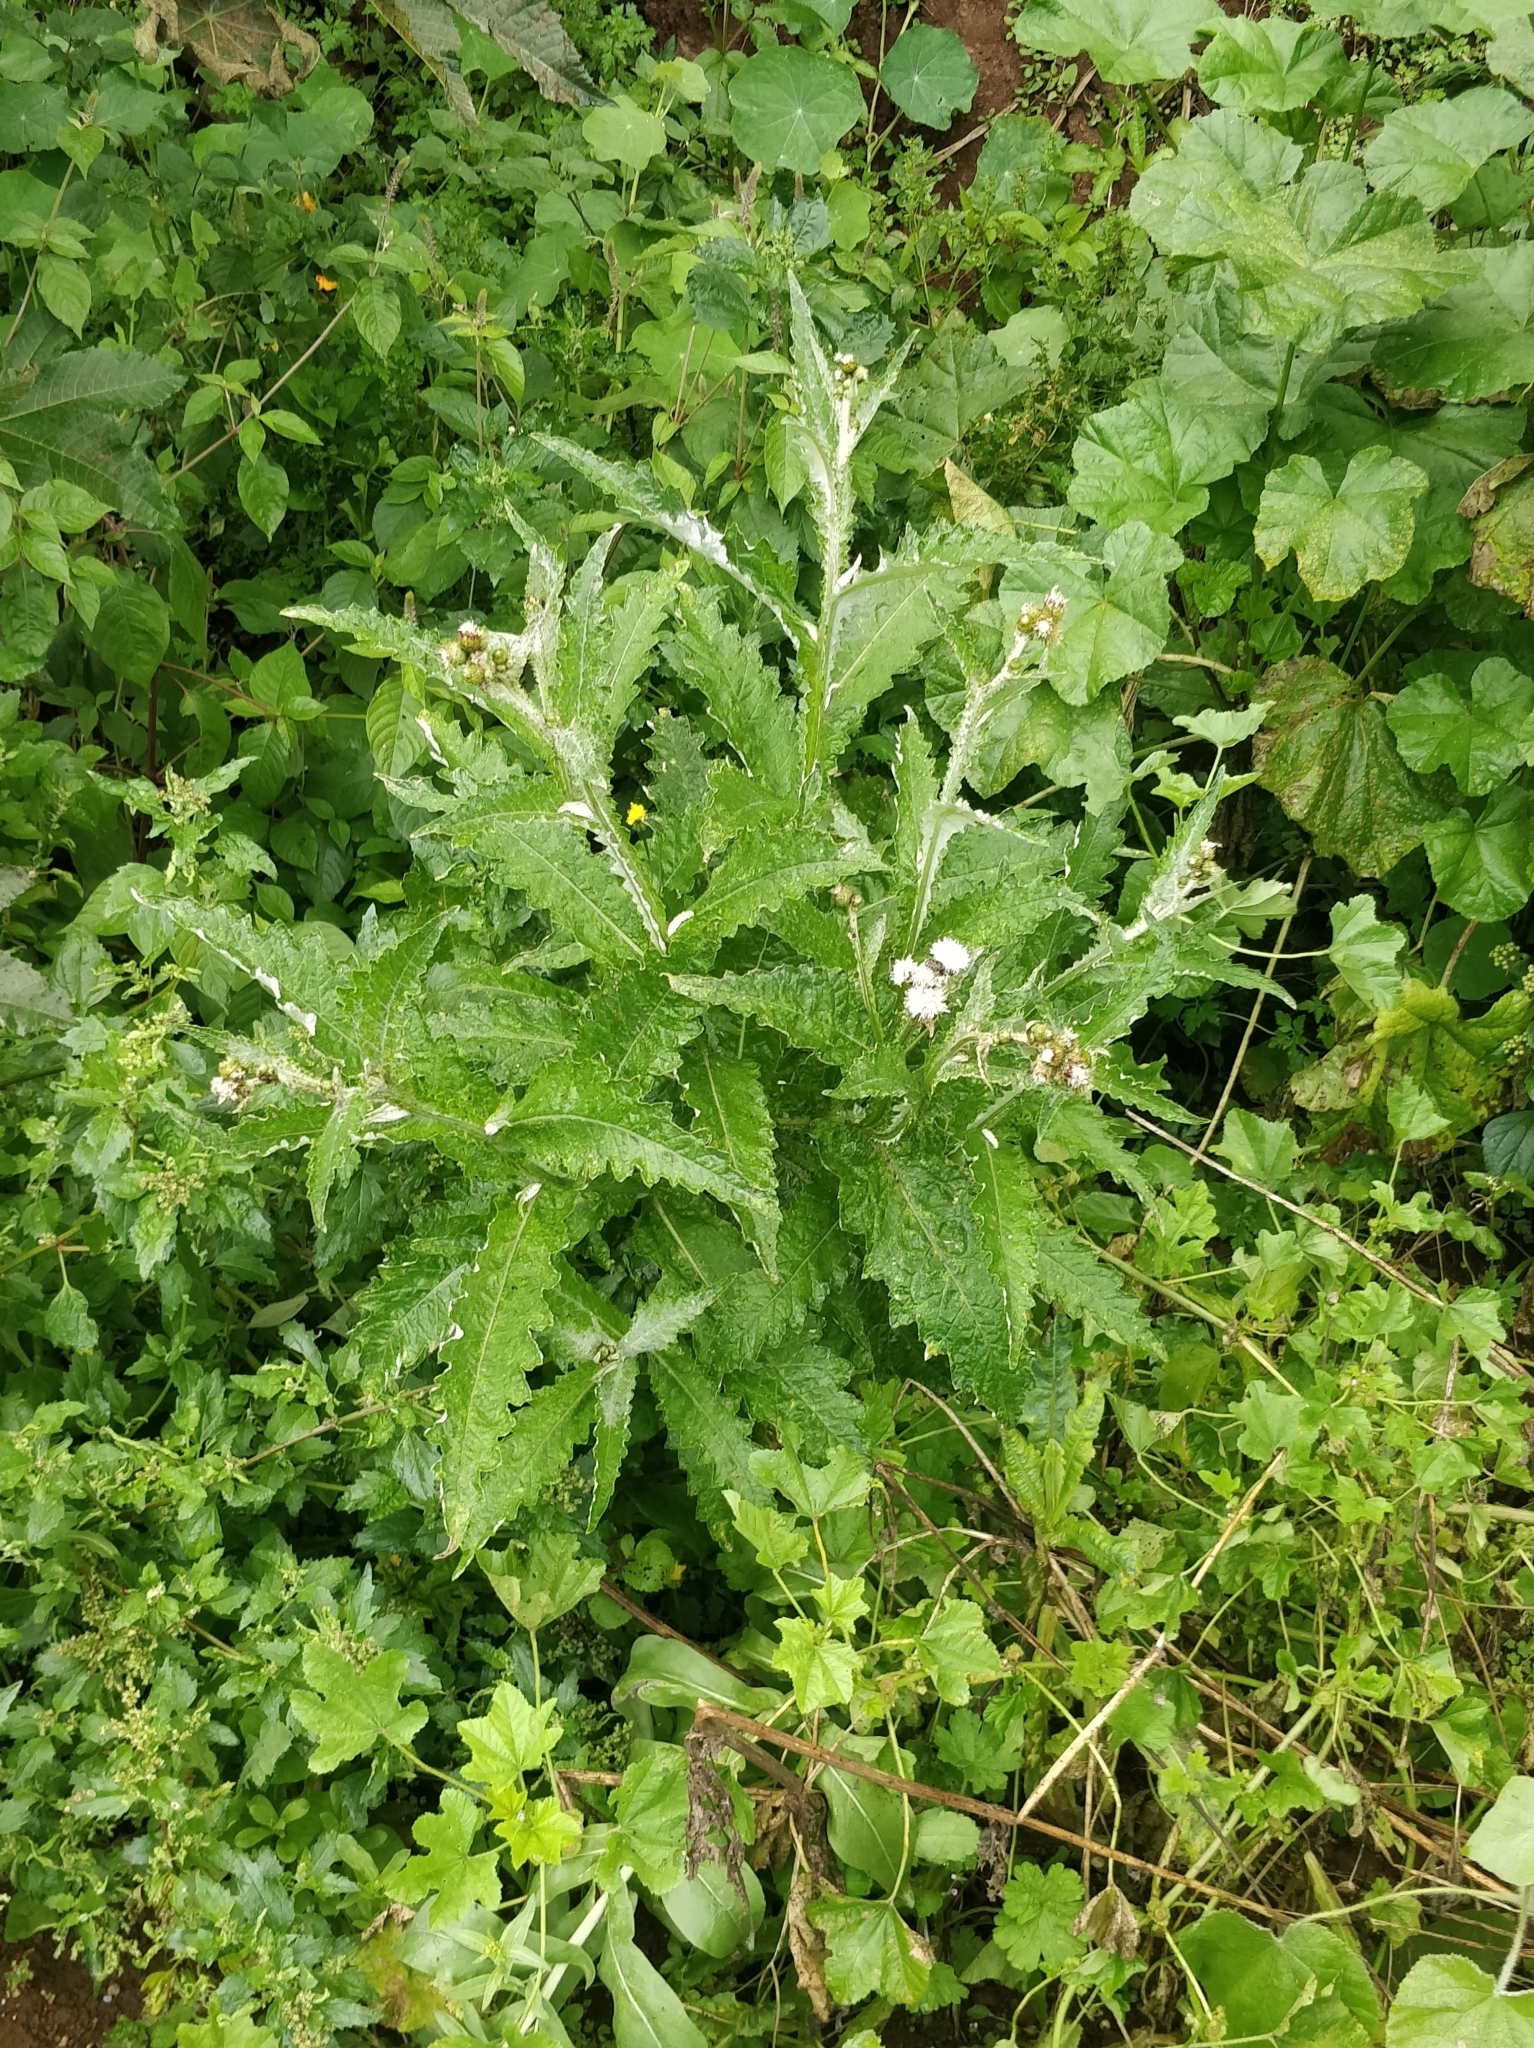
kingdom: Plantae
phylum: Tracheophyta
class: Magnoliopsida
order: Asterales
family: Asteraceae
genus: Carduus
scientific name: Carduus squarrosus
